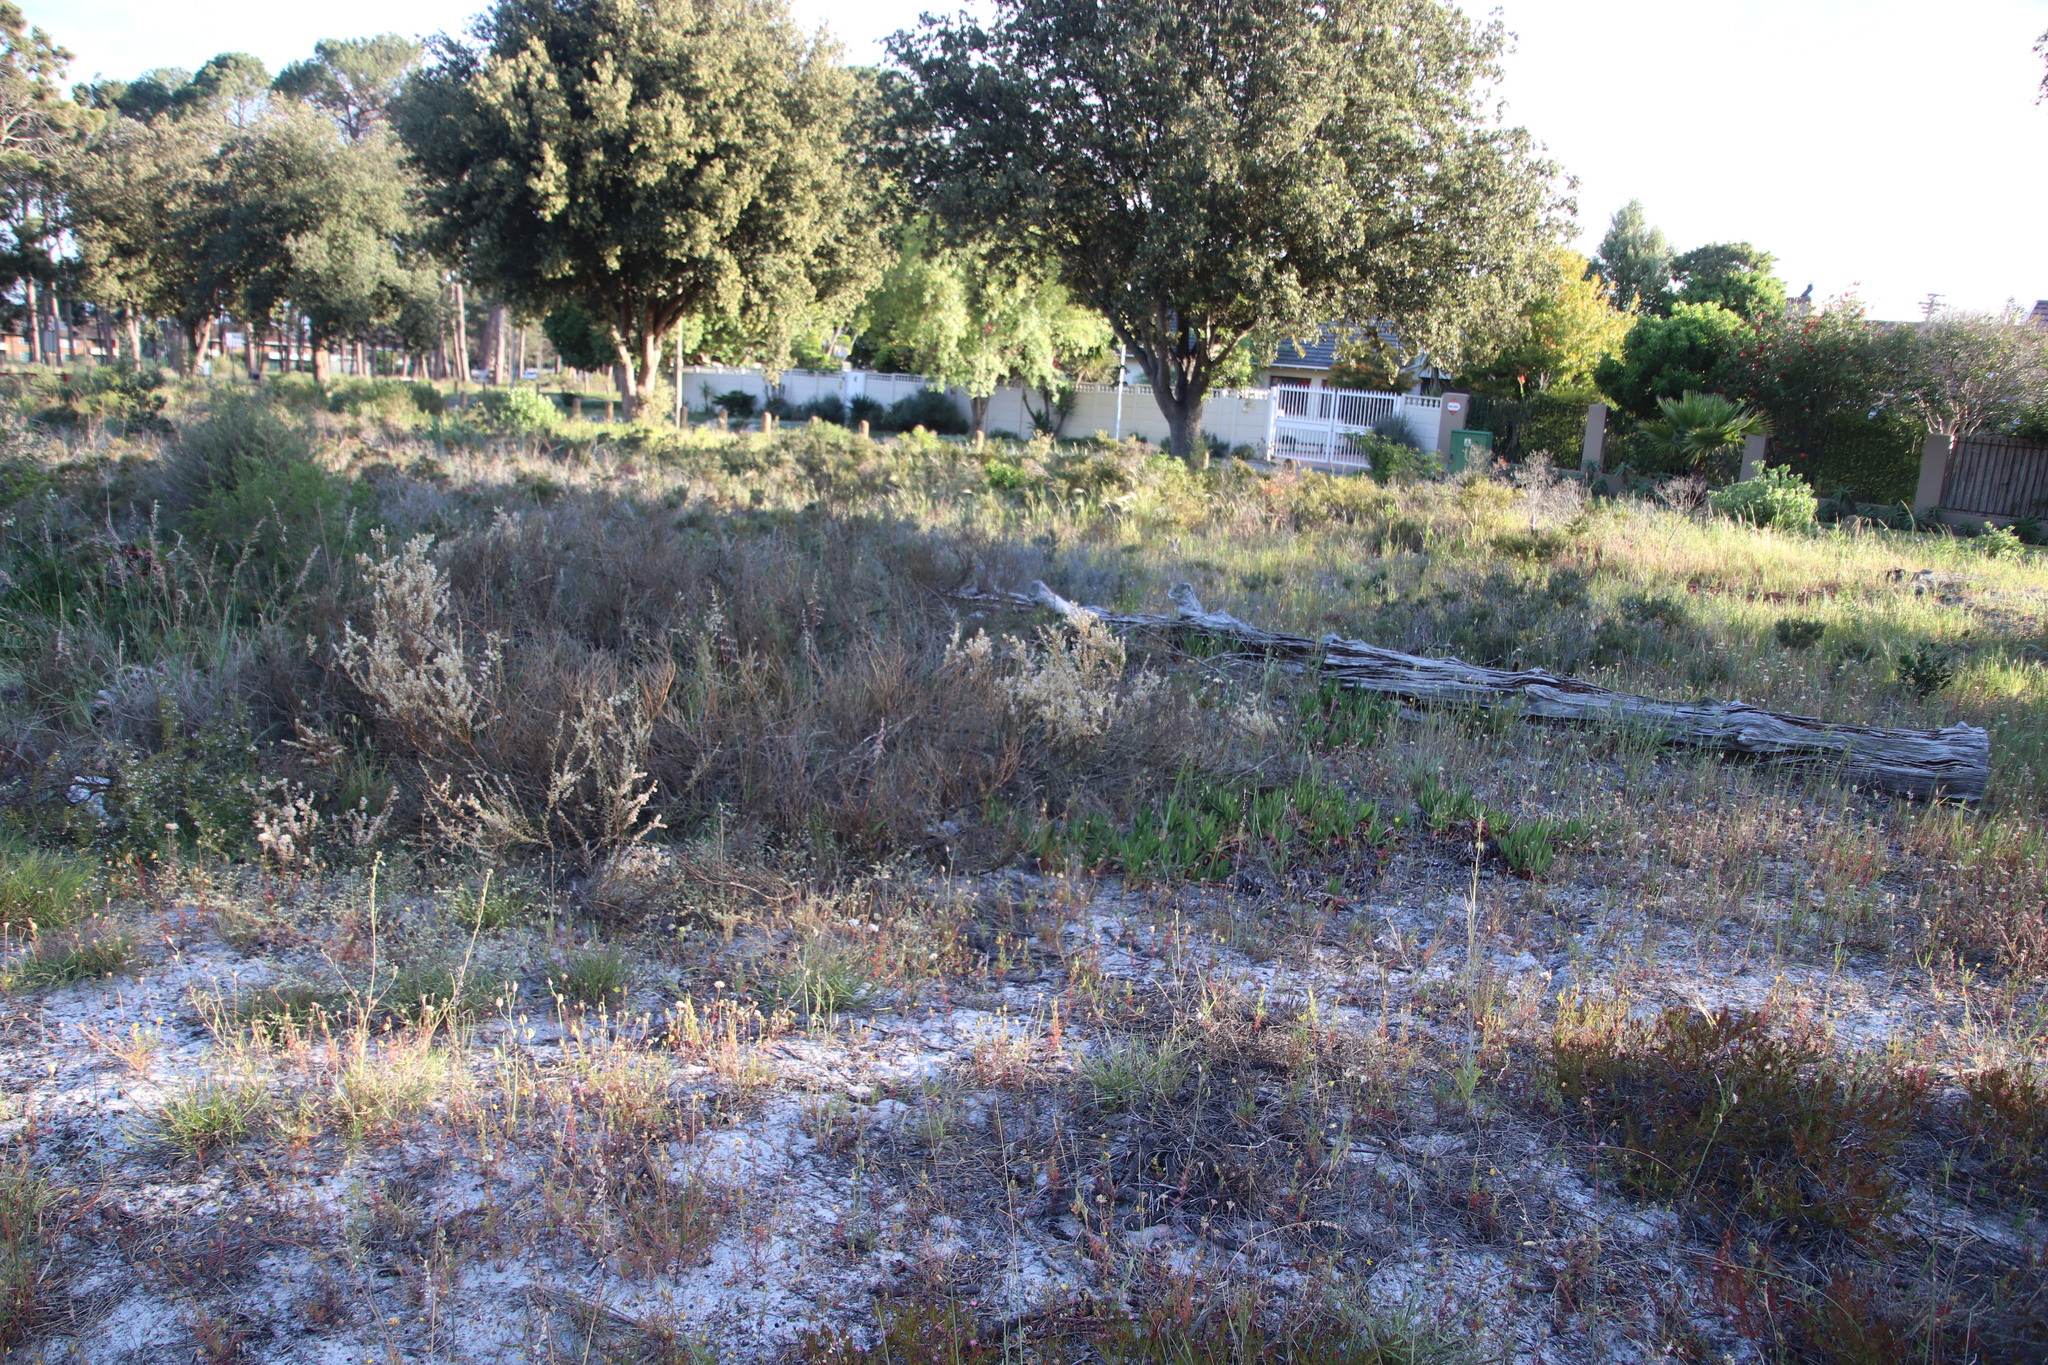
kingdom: Plantae
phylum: Tracheophyta
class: Magnoliopsida
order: Fabales
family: Polygalaceae
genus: Muraltia
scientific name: Muraltia spinosa
